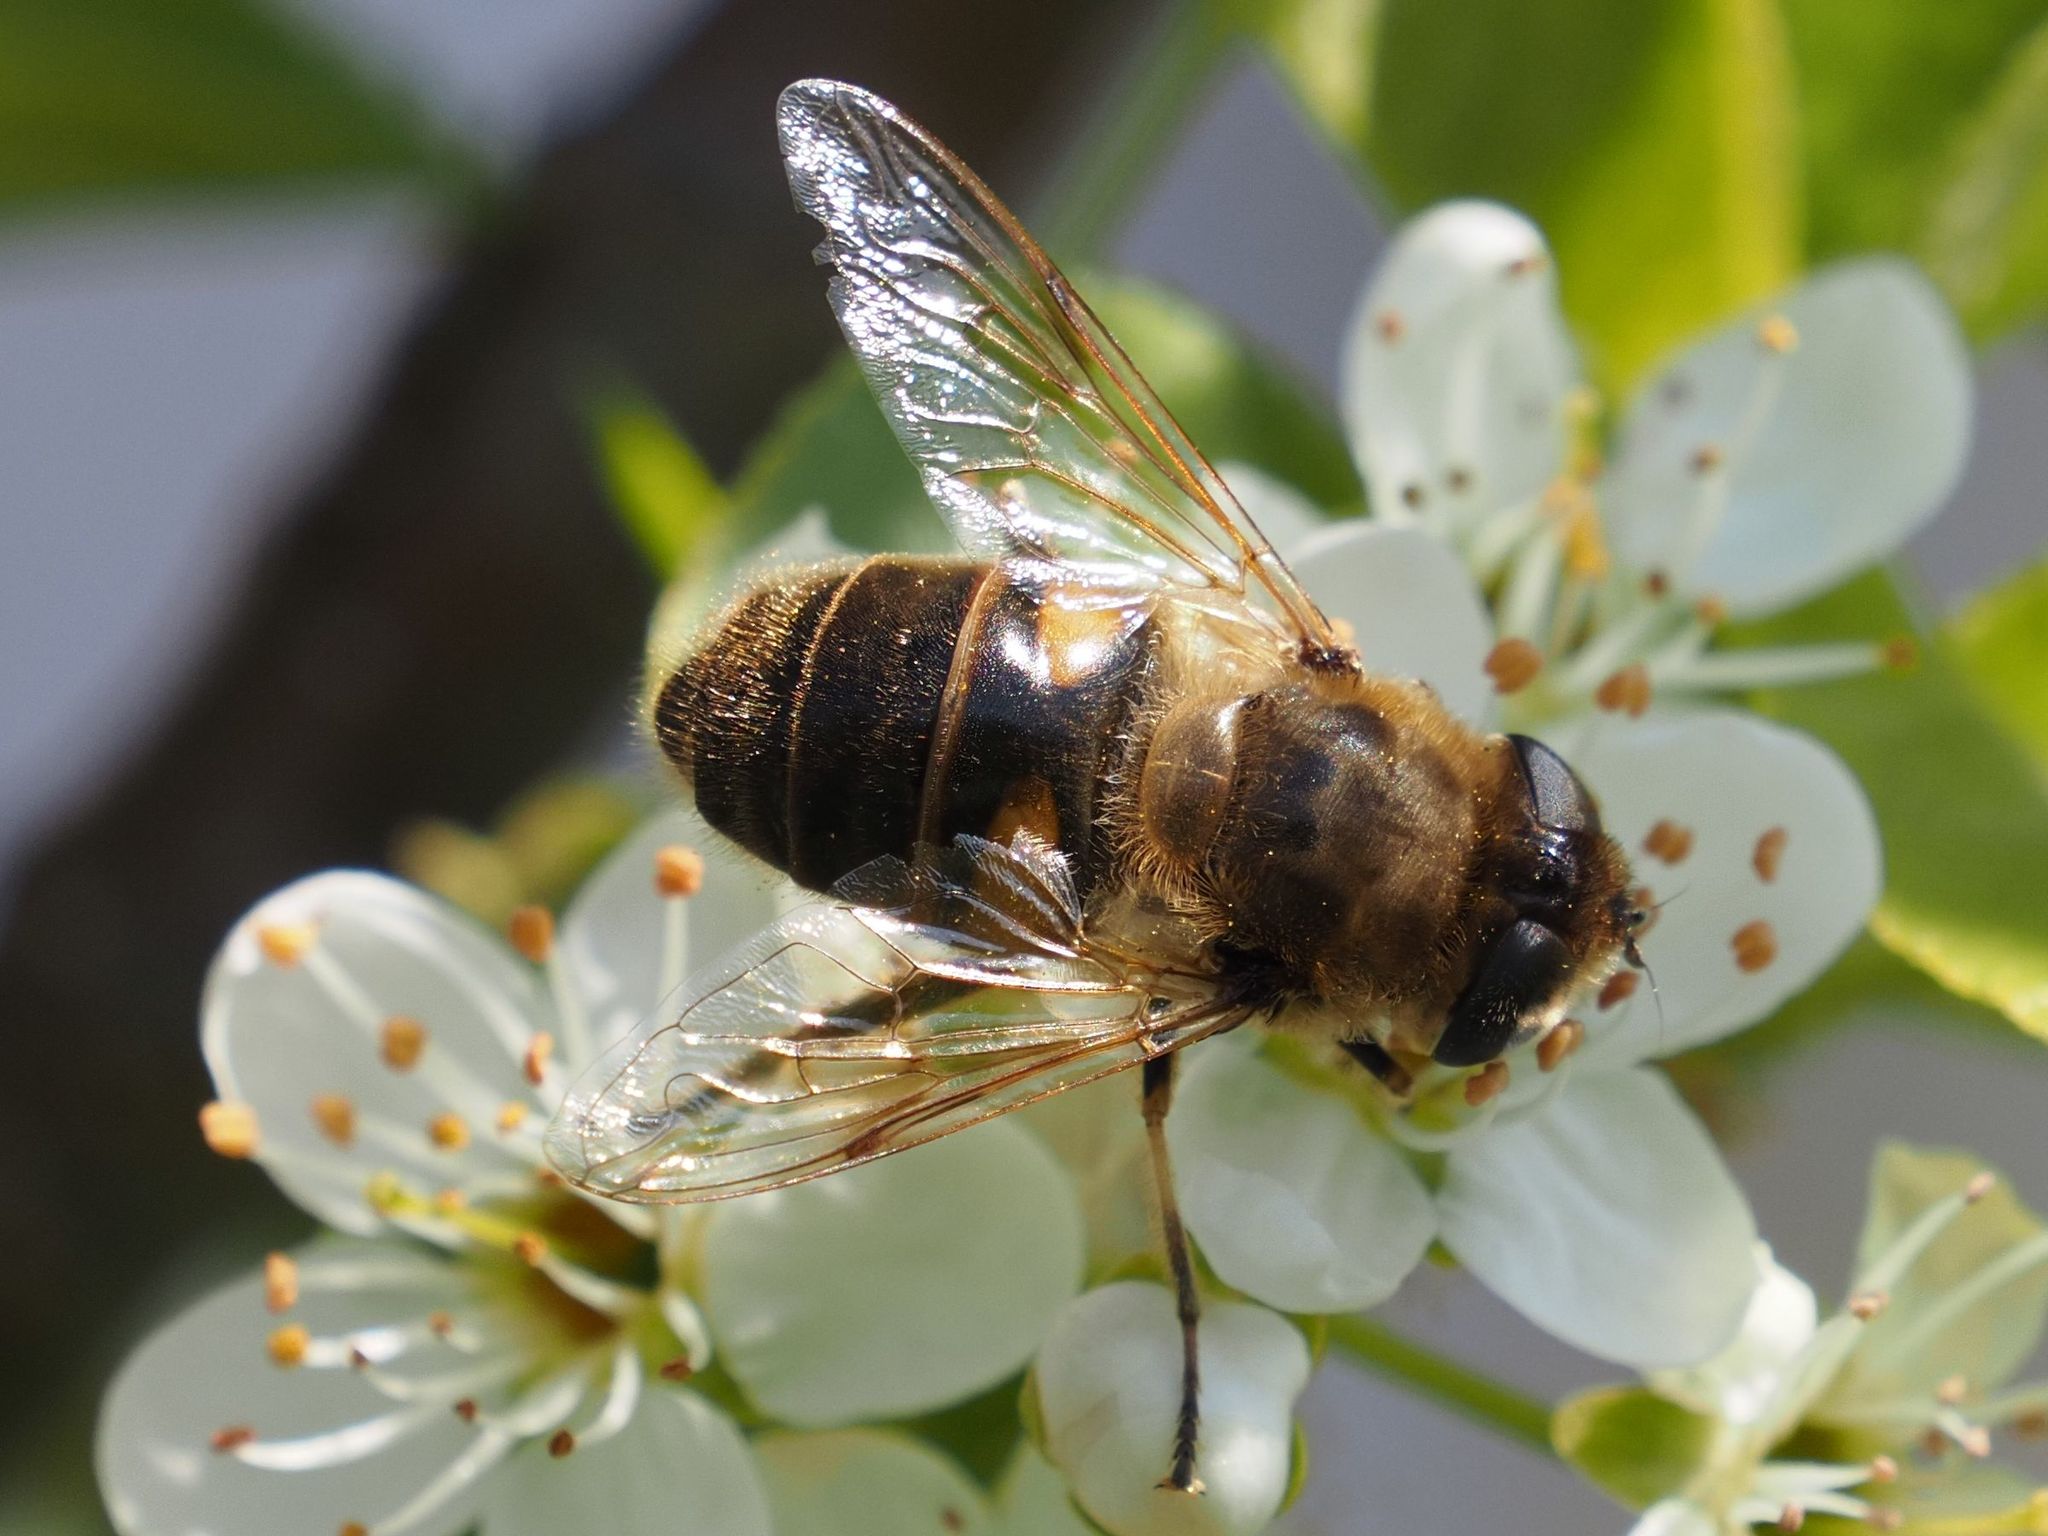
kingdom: Animalia
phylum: Arthropoda
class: Insecta
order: Diptera
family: Syrphidae
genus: Eristalis
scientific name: Eristalis tenax
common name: Drone fly
